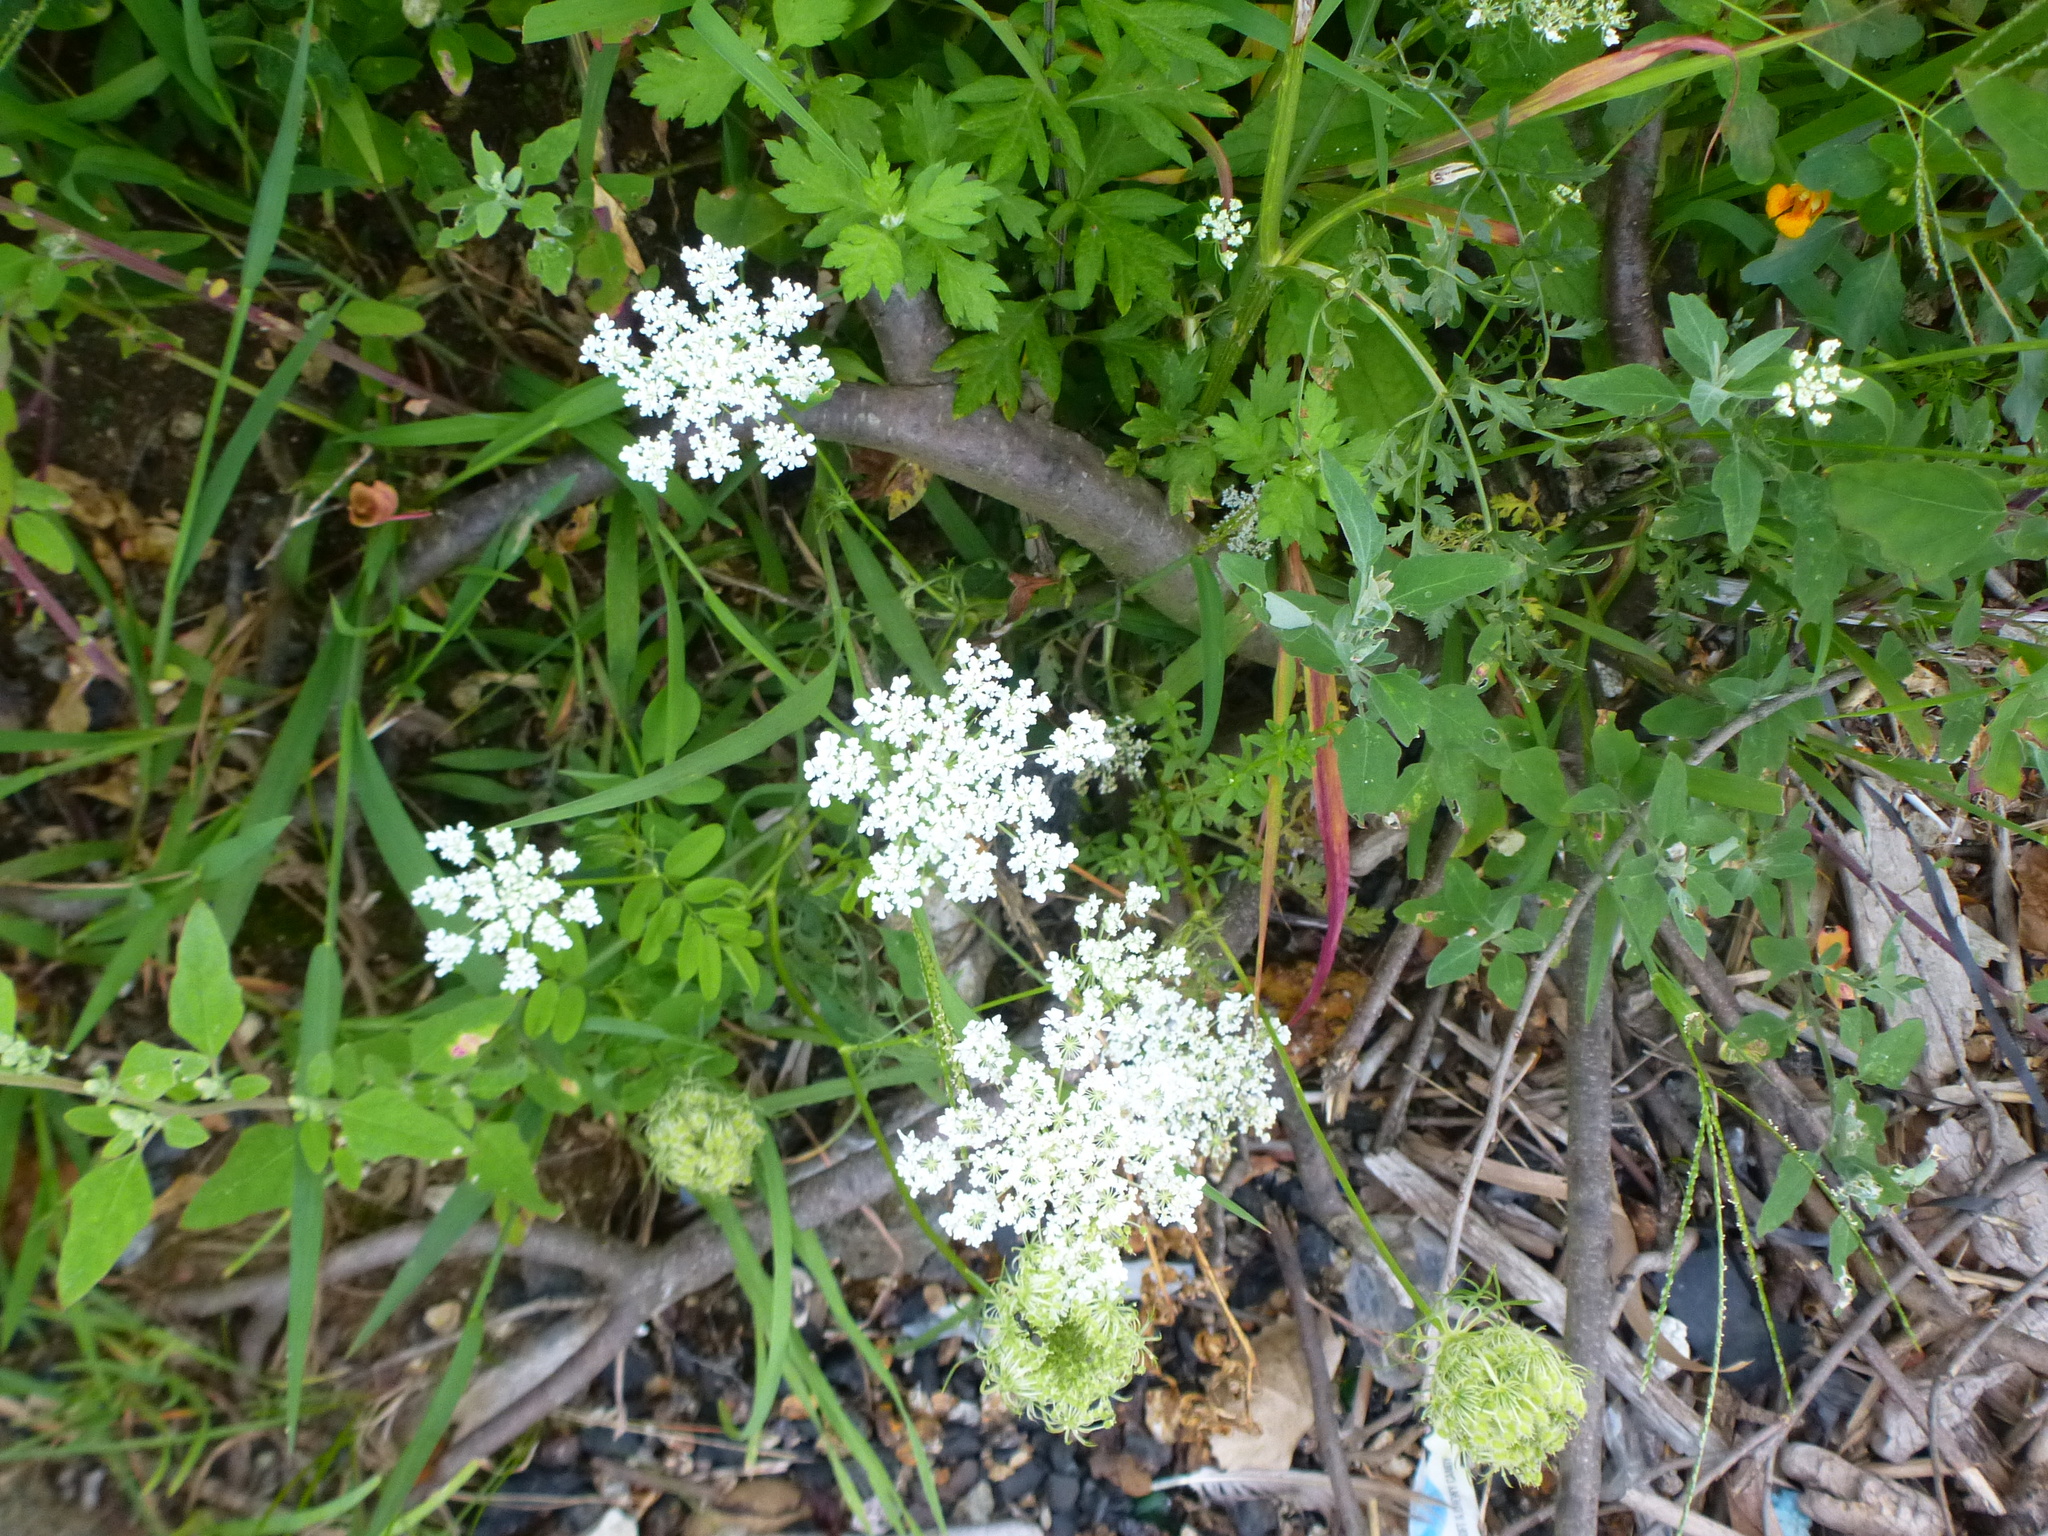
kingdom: Plantae
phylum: Tracheophyta
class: Magnoliopsida
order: Apiales
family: Apiaceae
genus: Daucus
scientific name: Daucus carota
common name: Wild carrot
